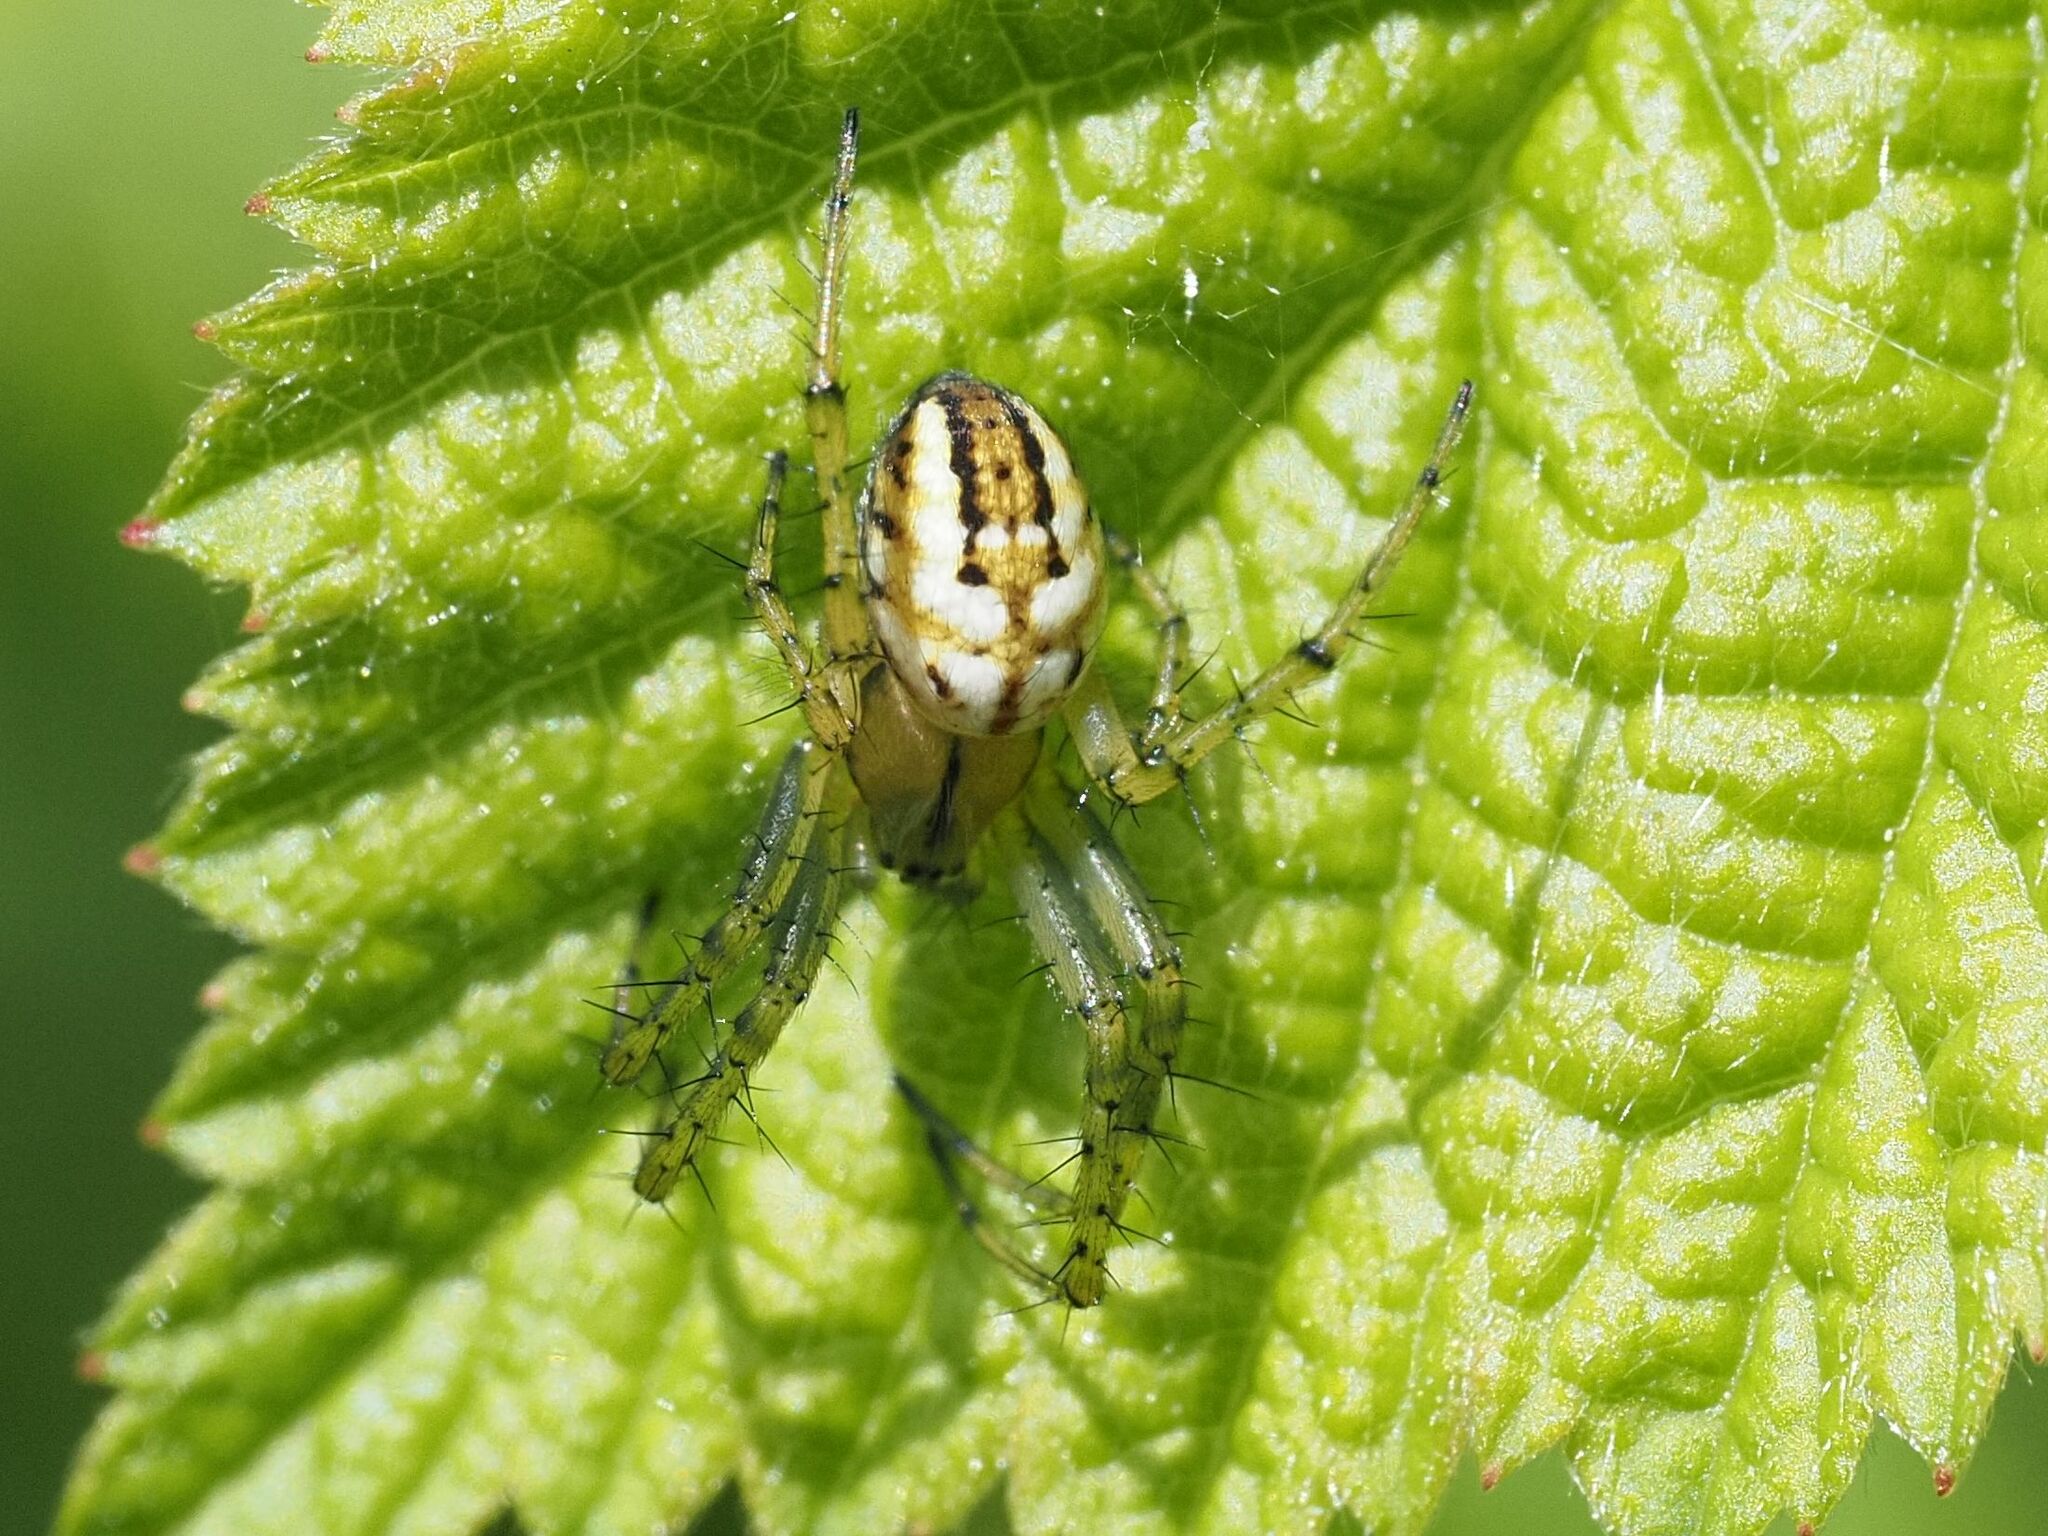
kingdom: Animalia
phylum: Arthropoda
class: Arachnida
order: Araneae
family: Araneidae
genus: Mangora
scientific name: Mangora acalypha
